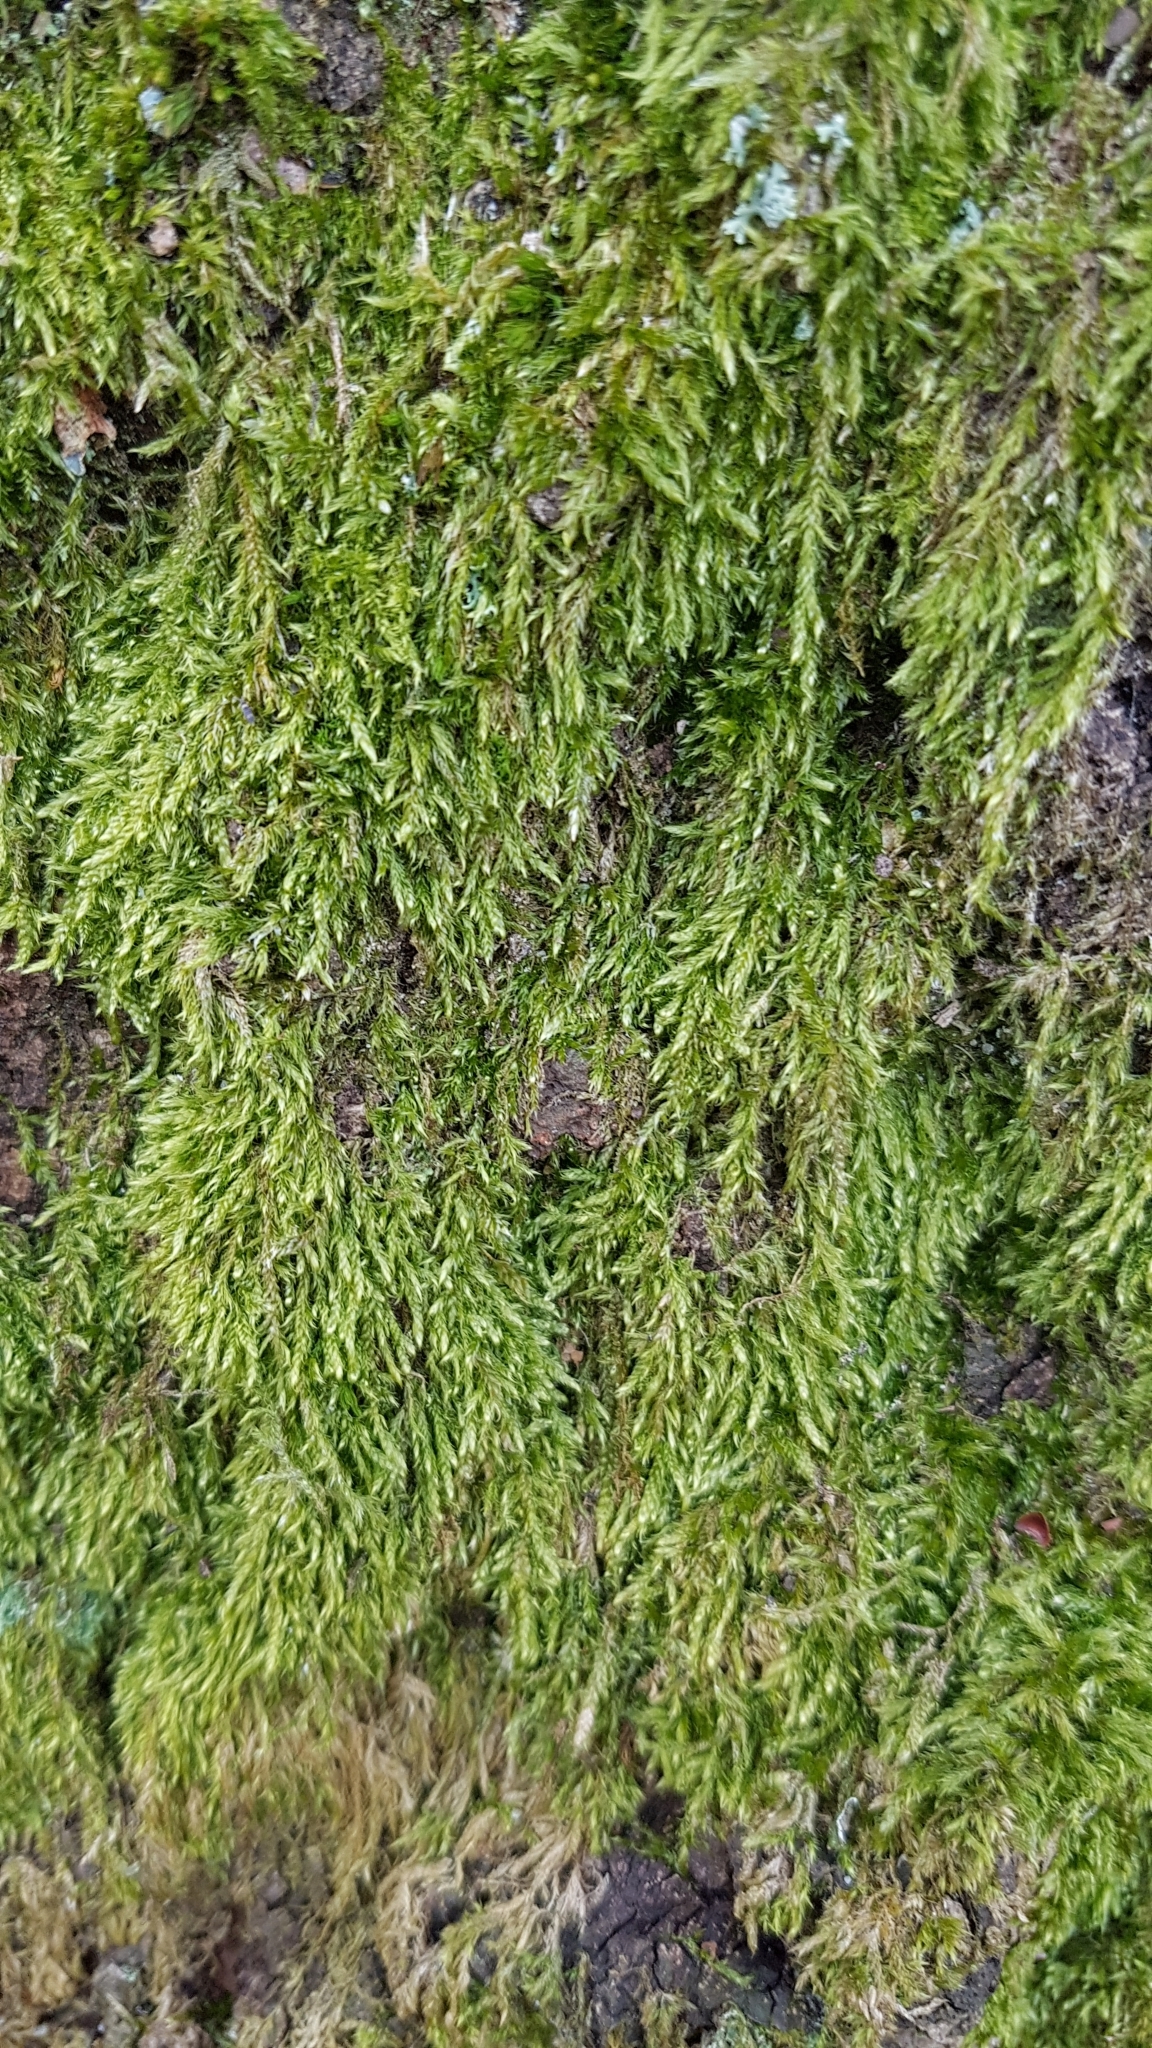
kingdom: Plantae
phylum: Bryophyta
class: Bryopsida
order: Hypnales
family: Hypnaceae
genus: Hypnum
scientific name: Hypnum cupressiforme
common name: Cypress-leaved plait-moss
